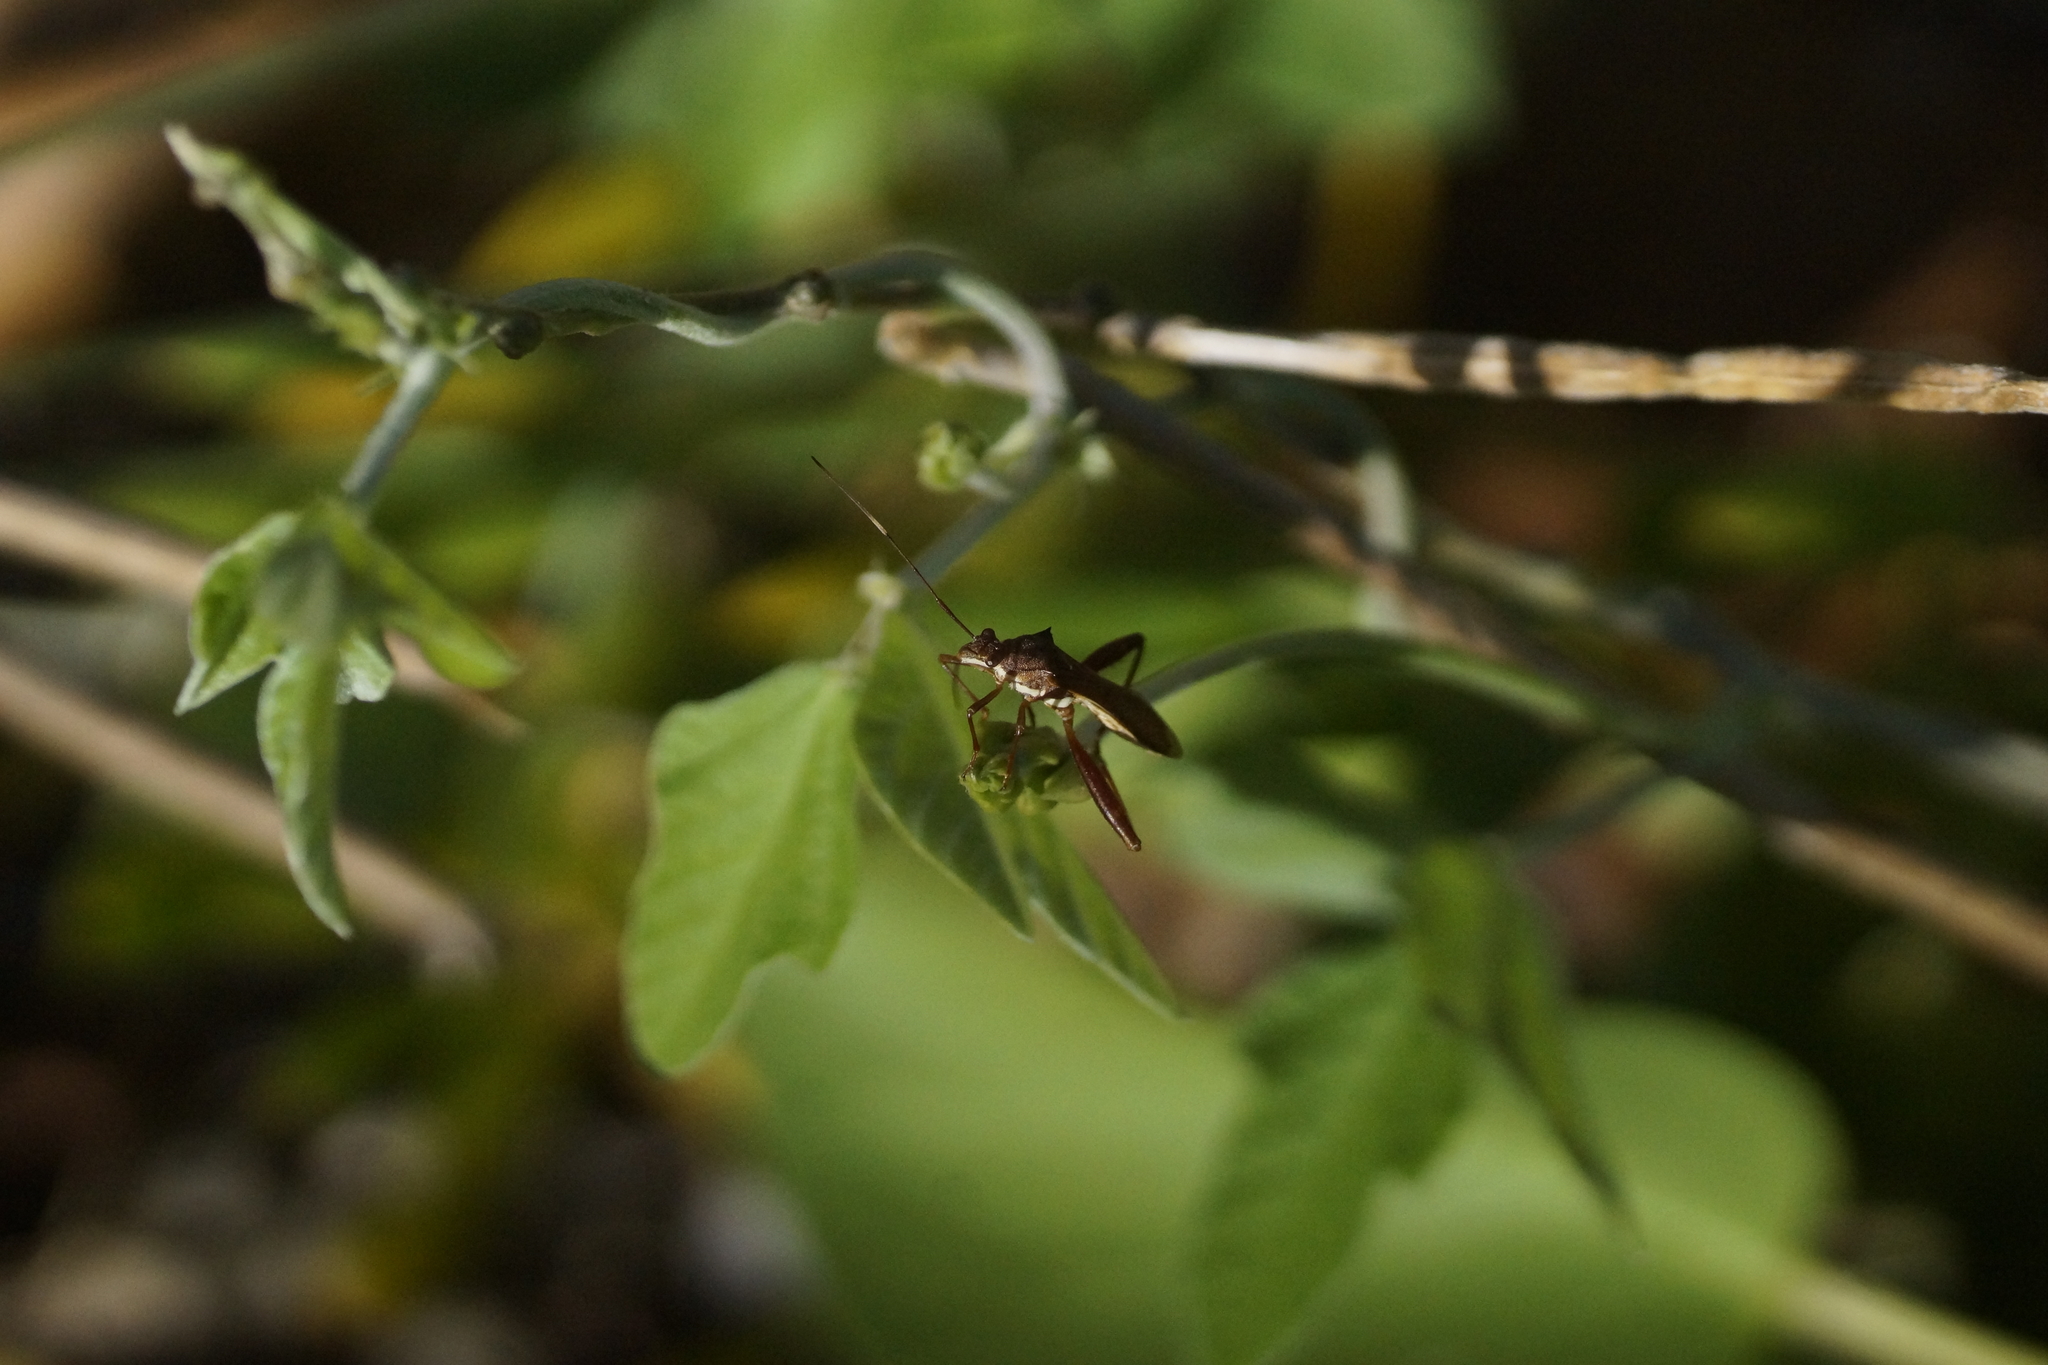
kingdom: Animalia
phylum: Arthropoda
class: Insecta
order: Hemiptera
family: Alydidae
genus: Riptortus
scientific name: Riptortus abdominalis
